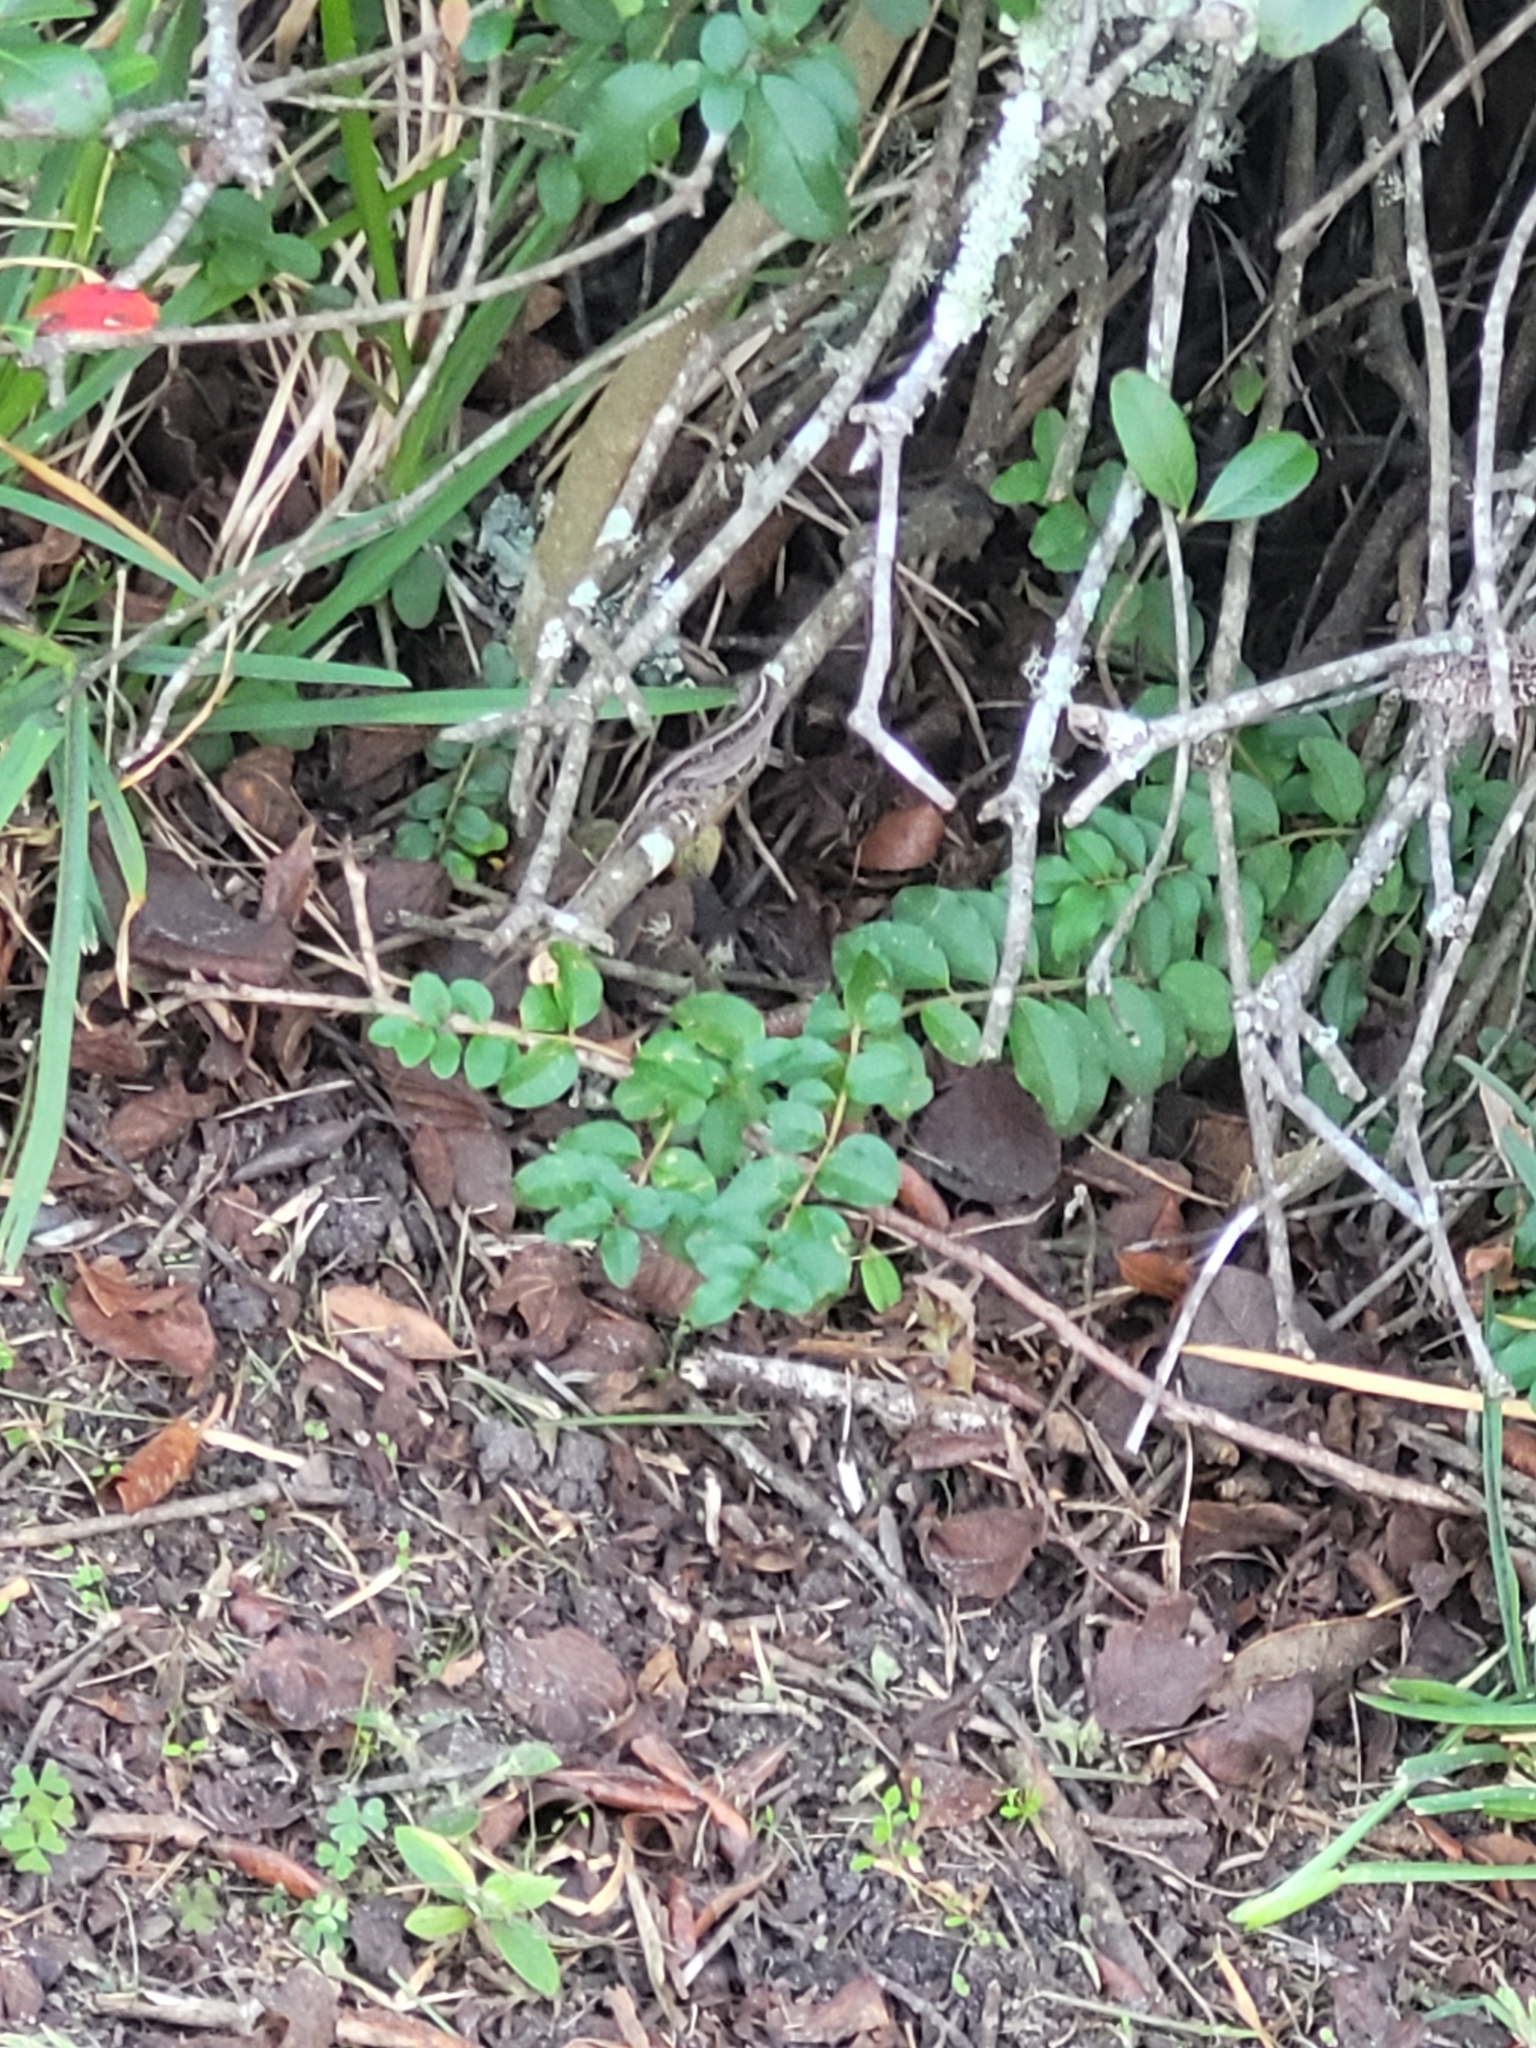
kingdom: Animalia
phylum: Chordata
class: Squamata
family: Dactyloidae
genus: Anolis
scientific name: Anolis sagrei
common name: Brown anole
